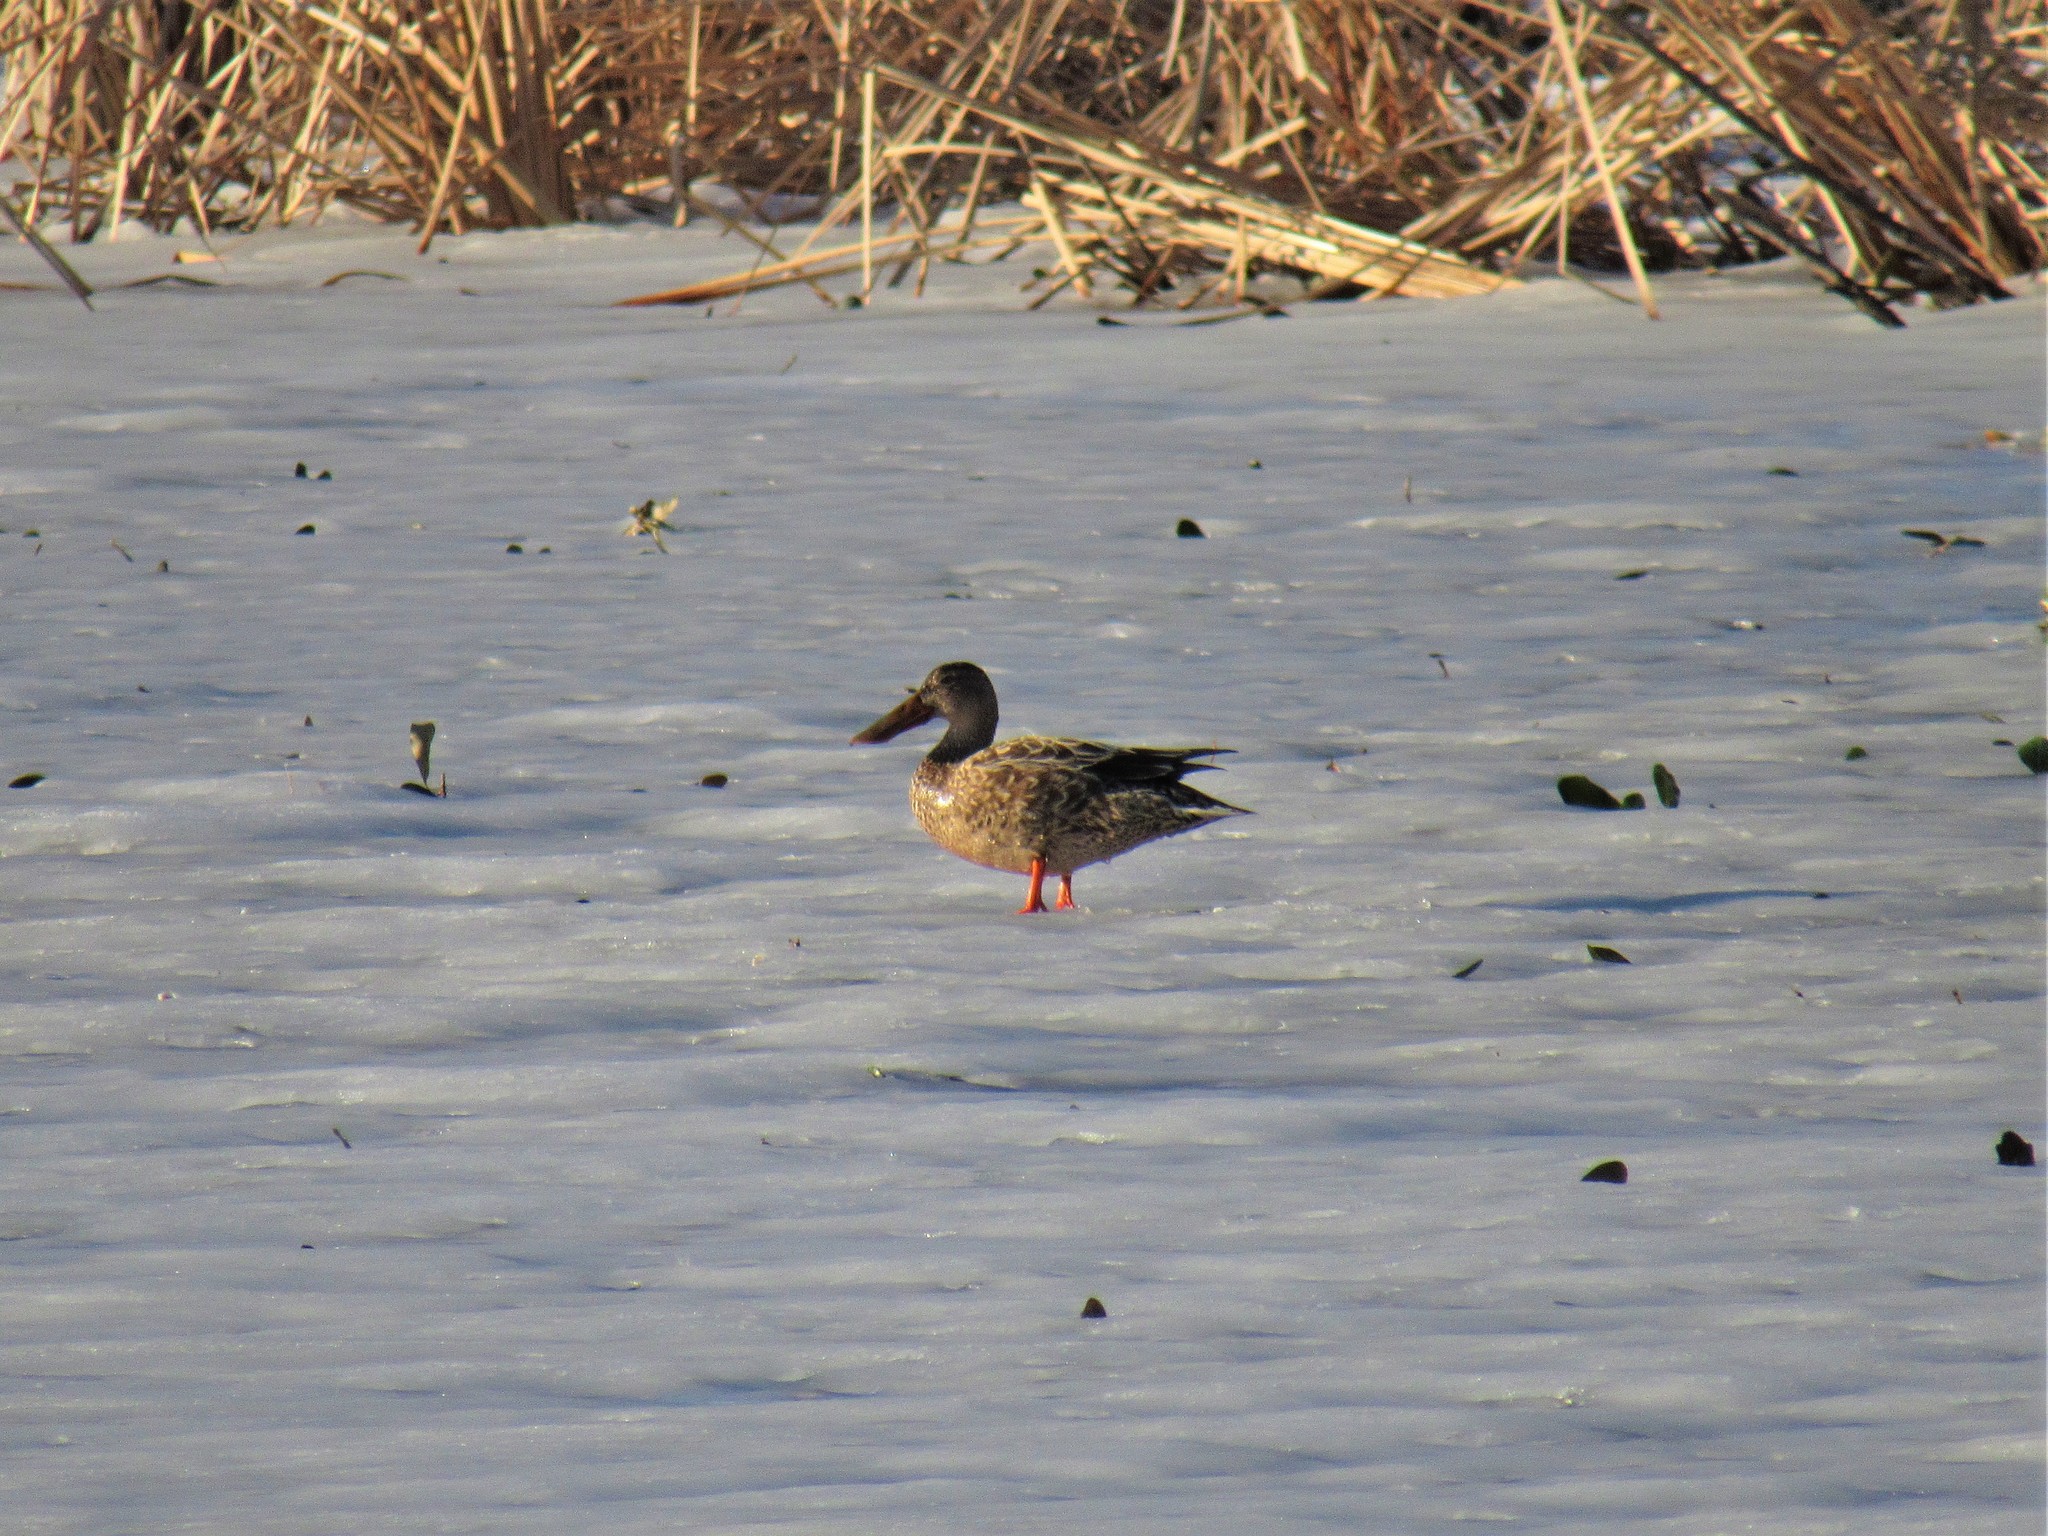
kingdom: Animalia
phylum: Chordata
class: Aves
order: Anseriformes
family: Anatidae
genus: Spatula
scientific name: Spatula clypeata
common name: Northern shoveler
